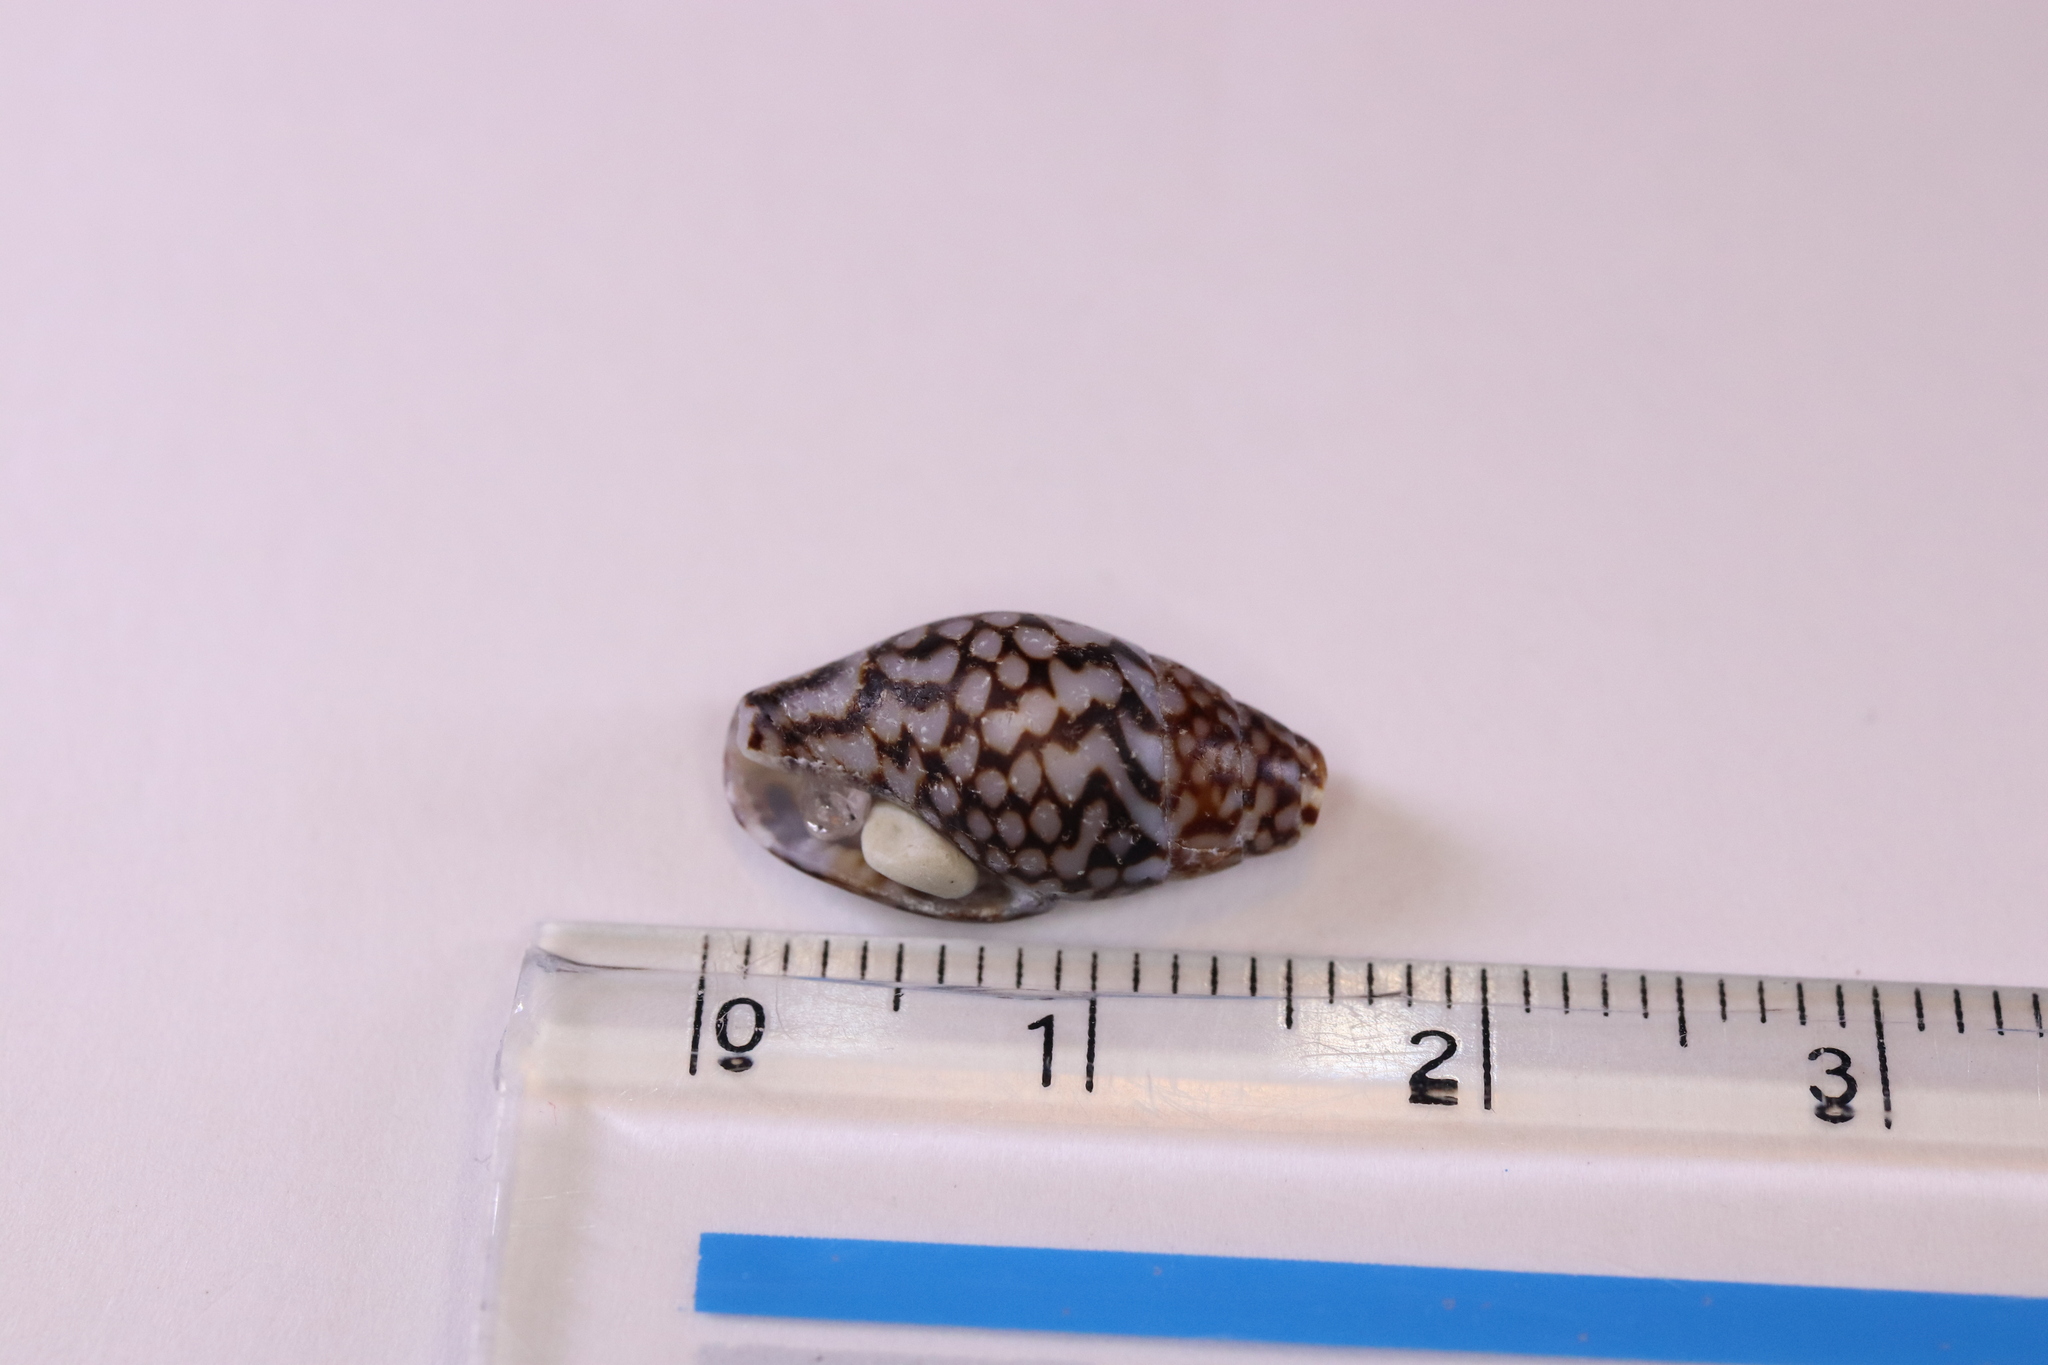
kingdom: Animalia
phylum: Mollusca
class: Gastropoda
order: Neogastropoda
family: Columbellidae
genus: Pardalinops de
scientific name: Pardalinops de Pardalinops testudinaria
